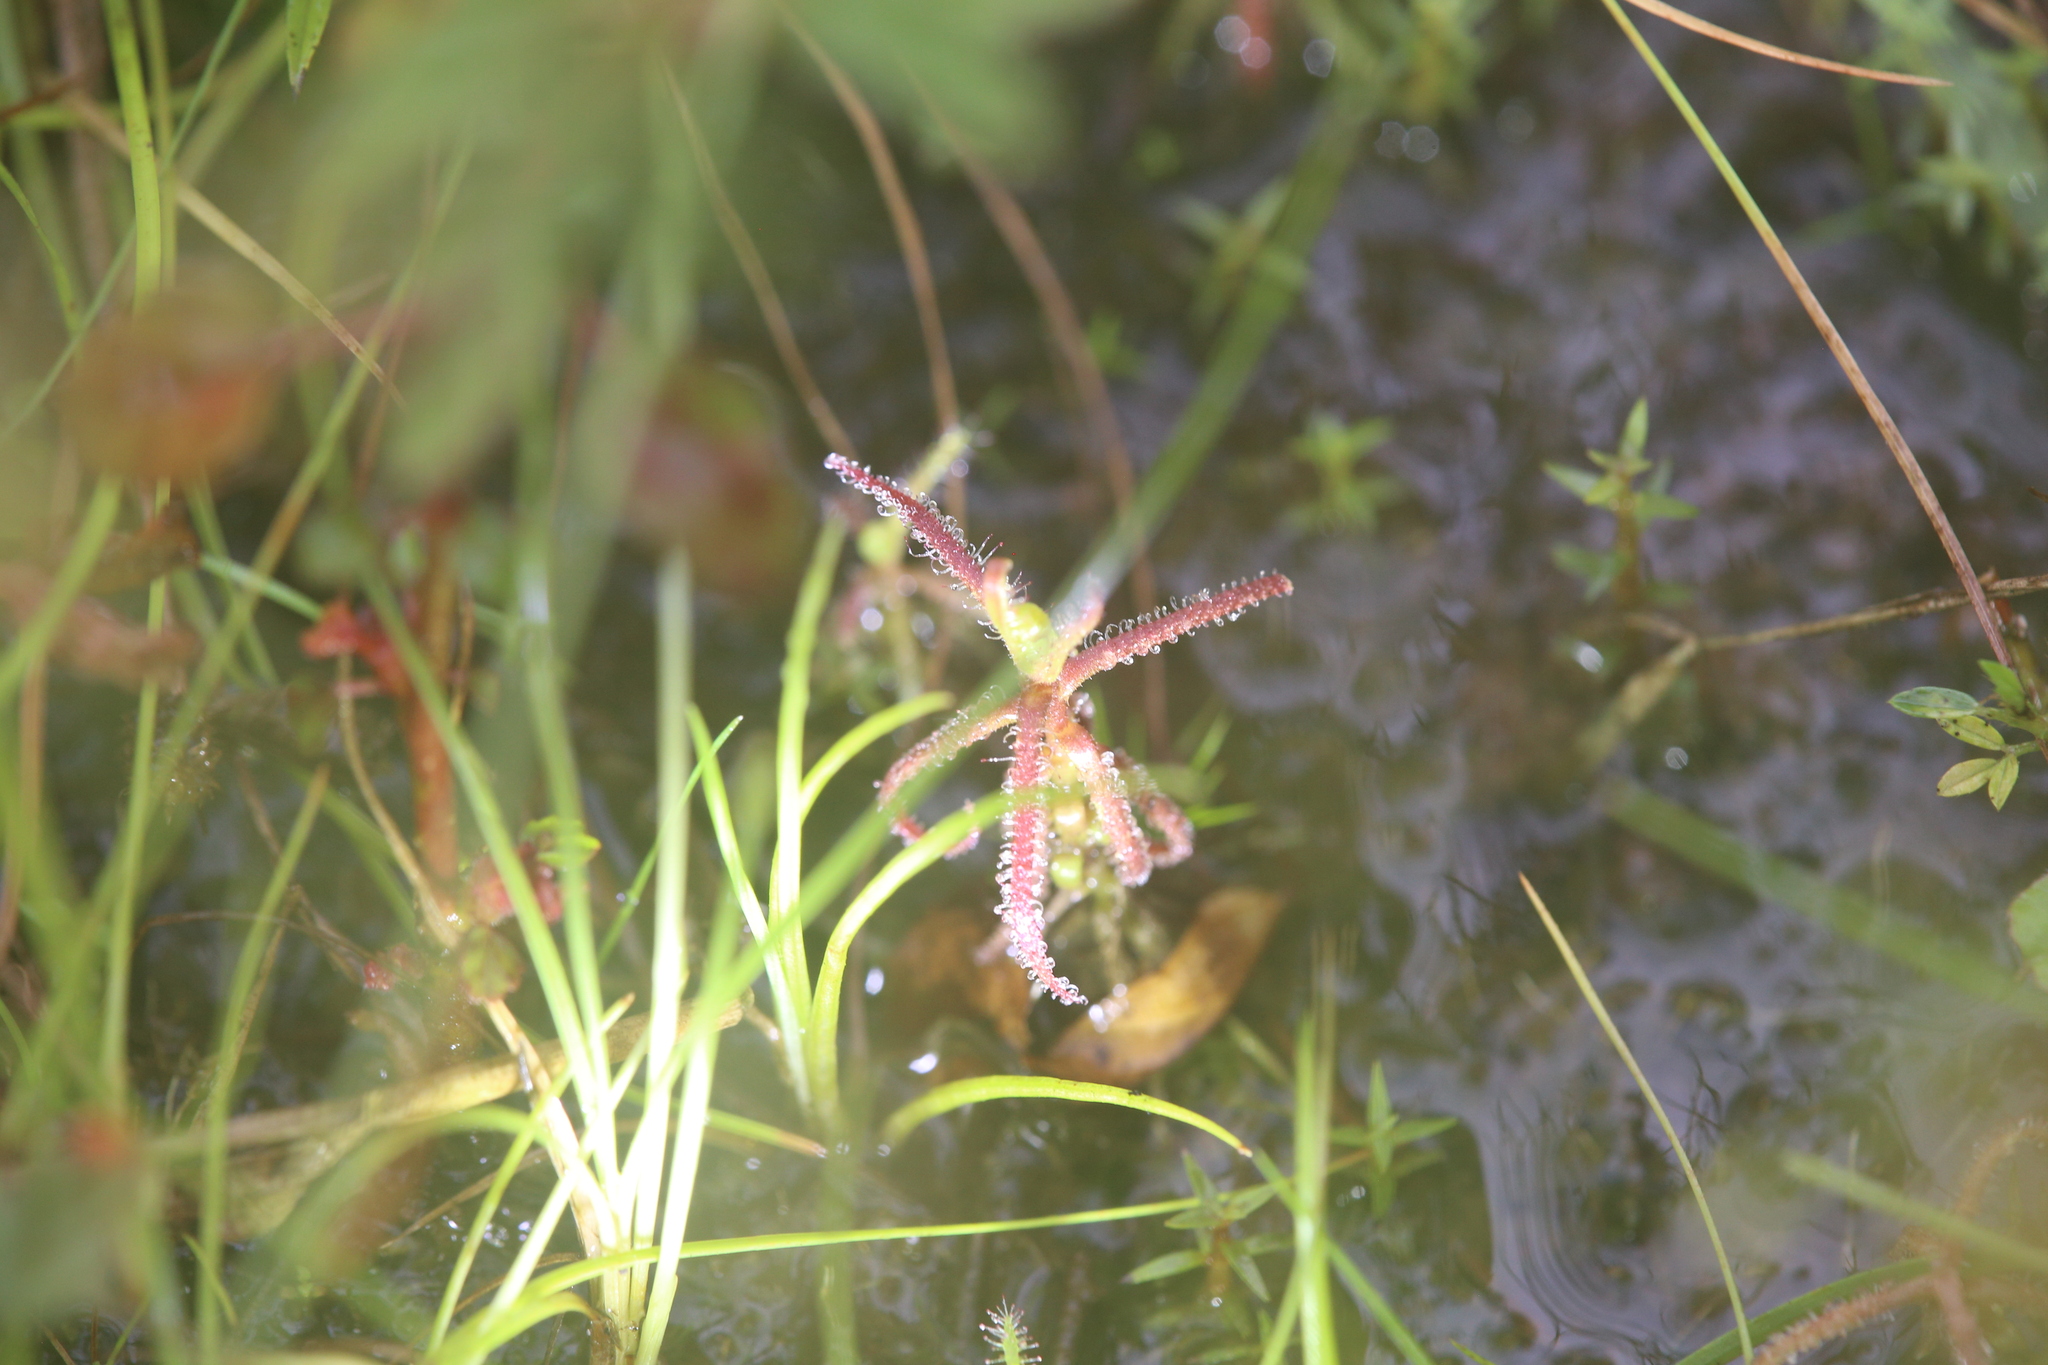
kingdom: Plantae
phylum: Tracheophyta
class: Magnoliopsida
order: Caryophyllales
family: Droseraceae
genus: Drosera
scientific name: Drosera aquatica
